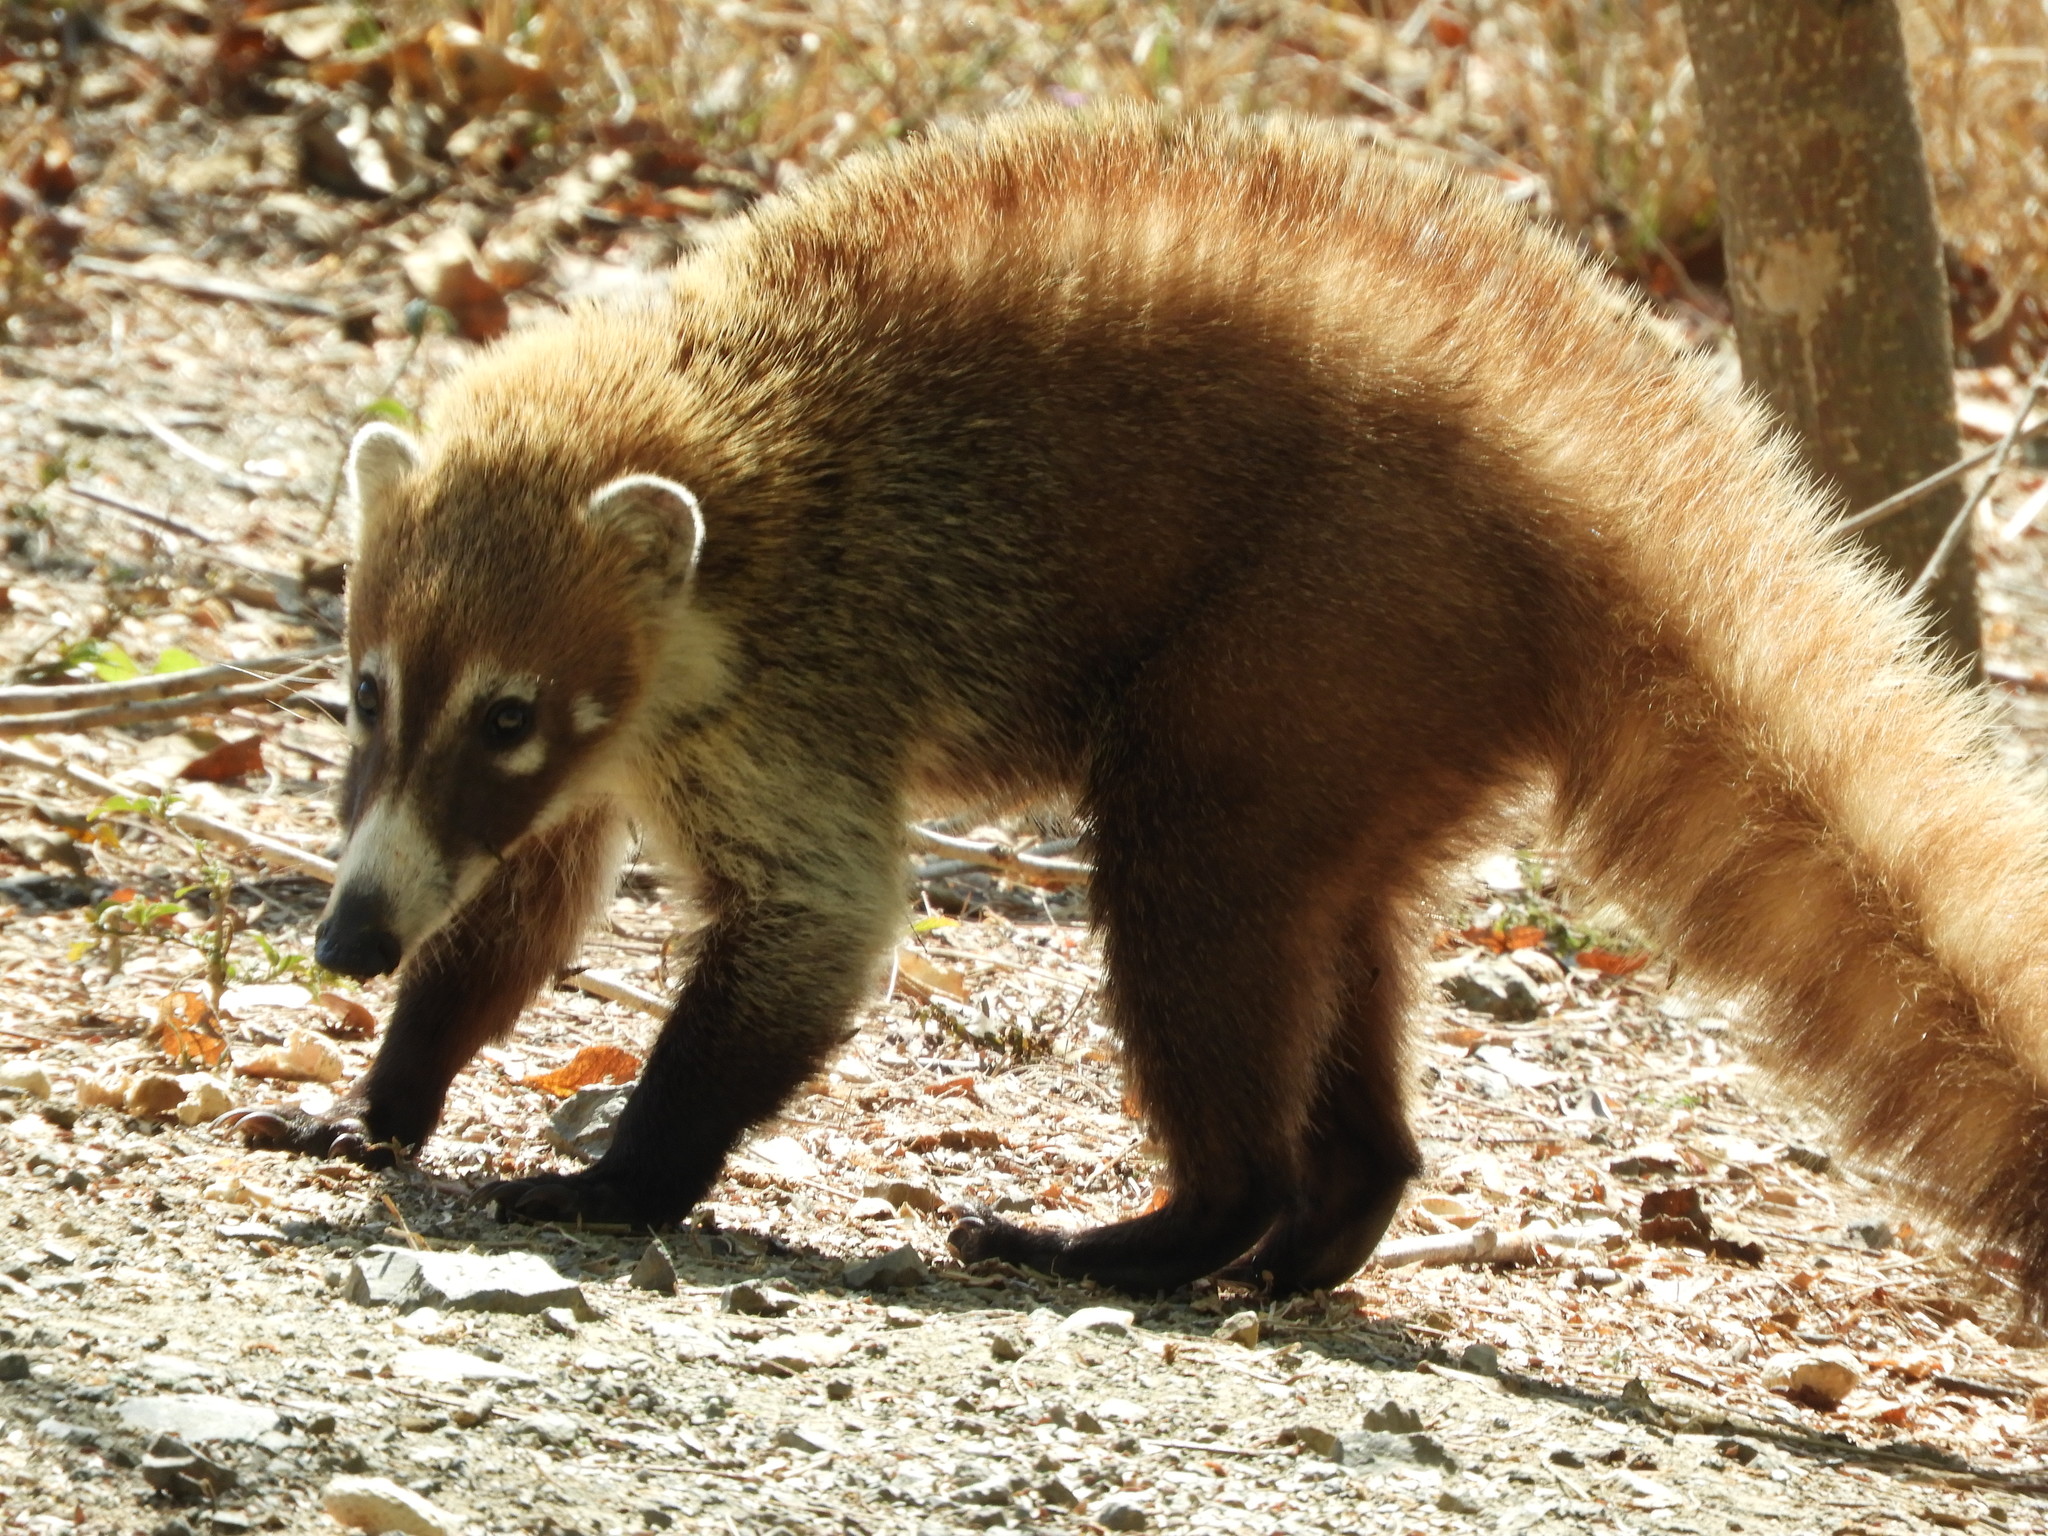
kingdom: Animalia
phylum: Chordata
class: Mammalia
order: Carnivora
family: Procyonidae
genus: Nasua
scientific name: Nasua narica
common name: White-nosed coati
